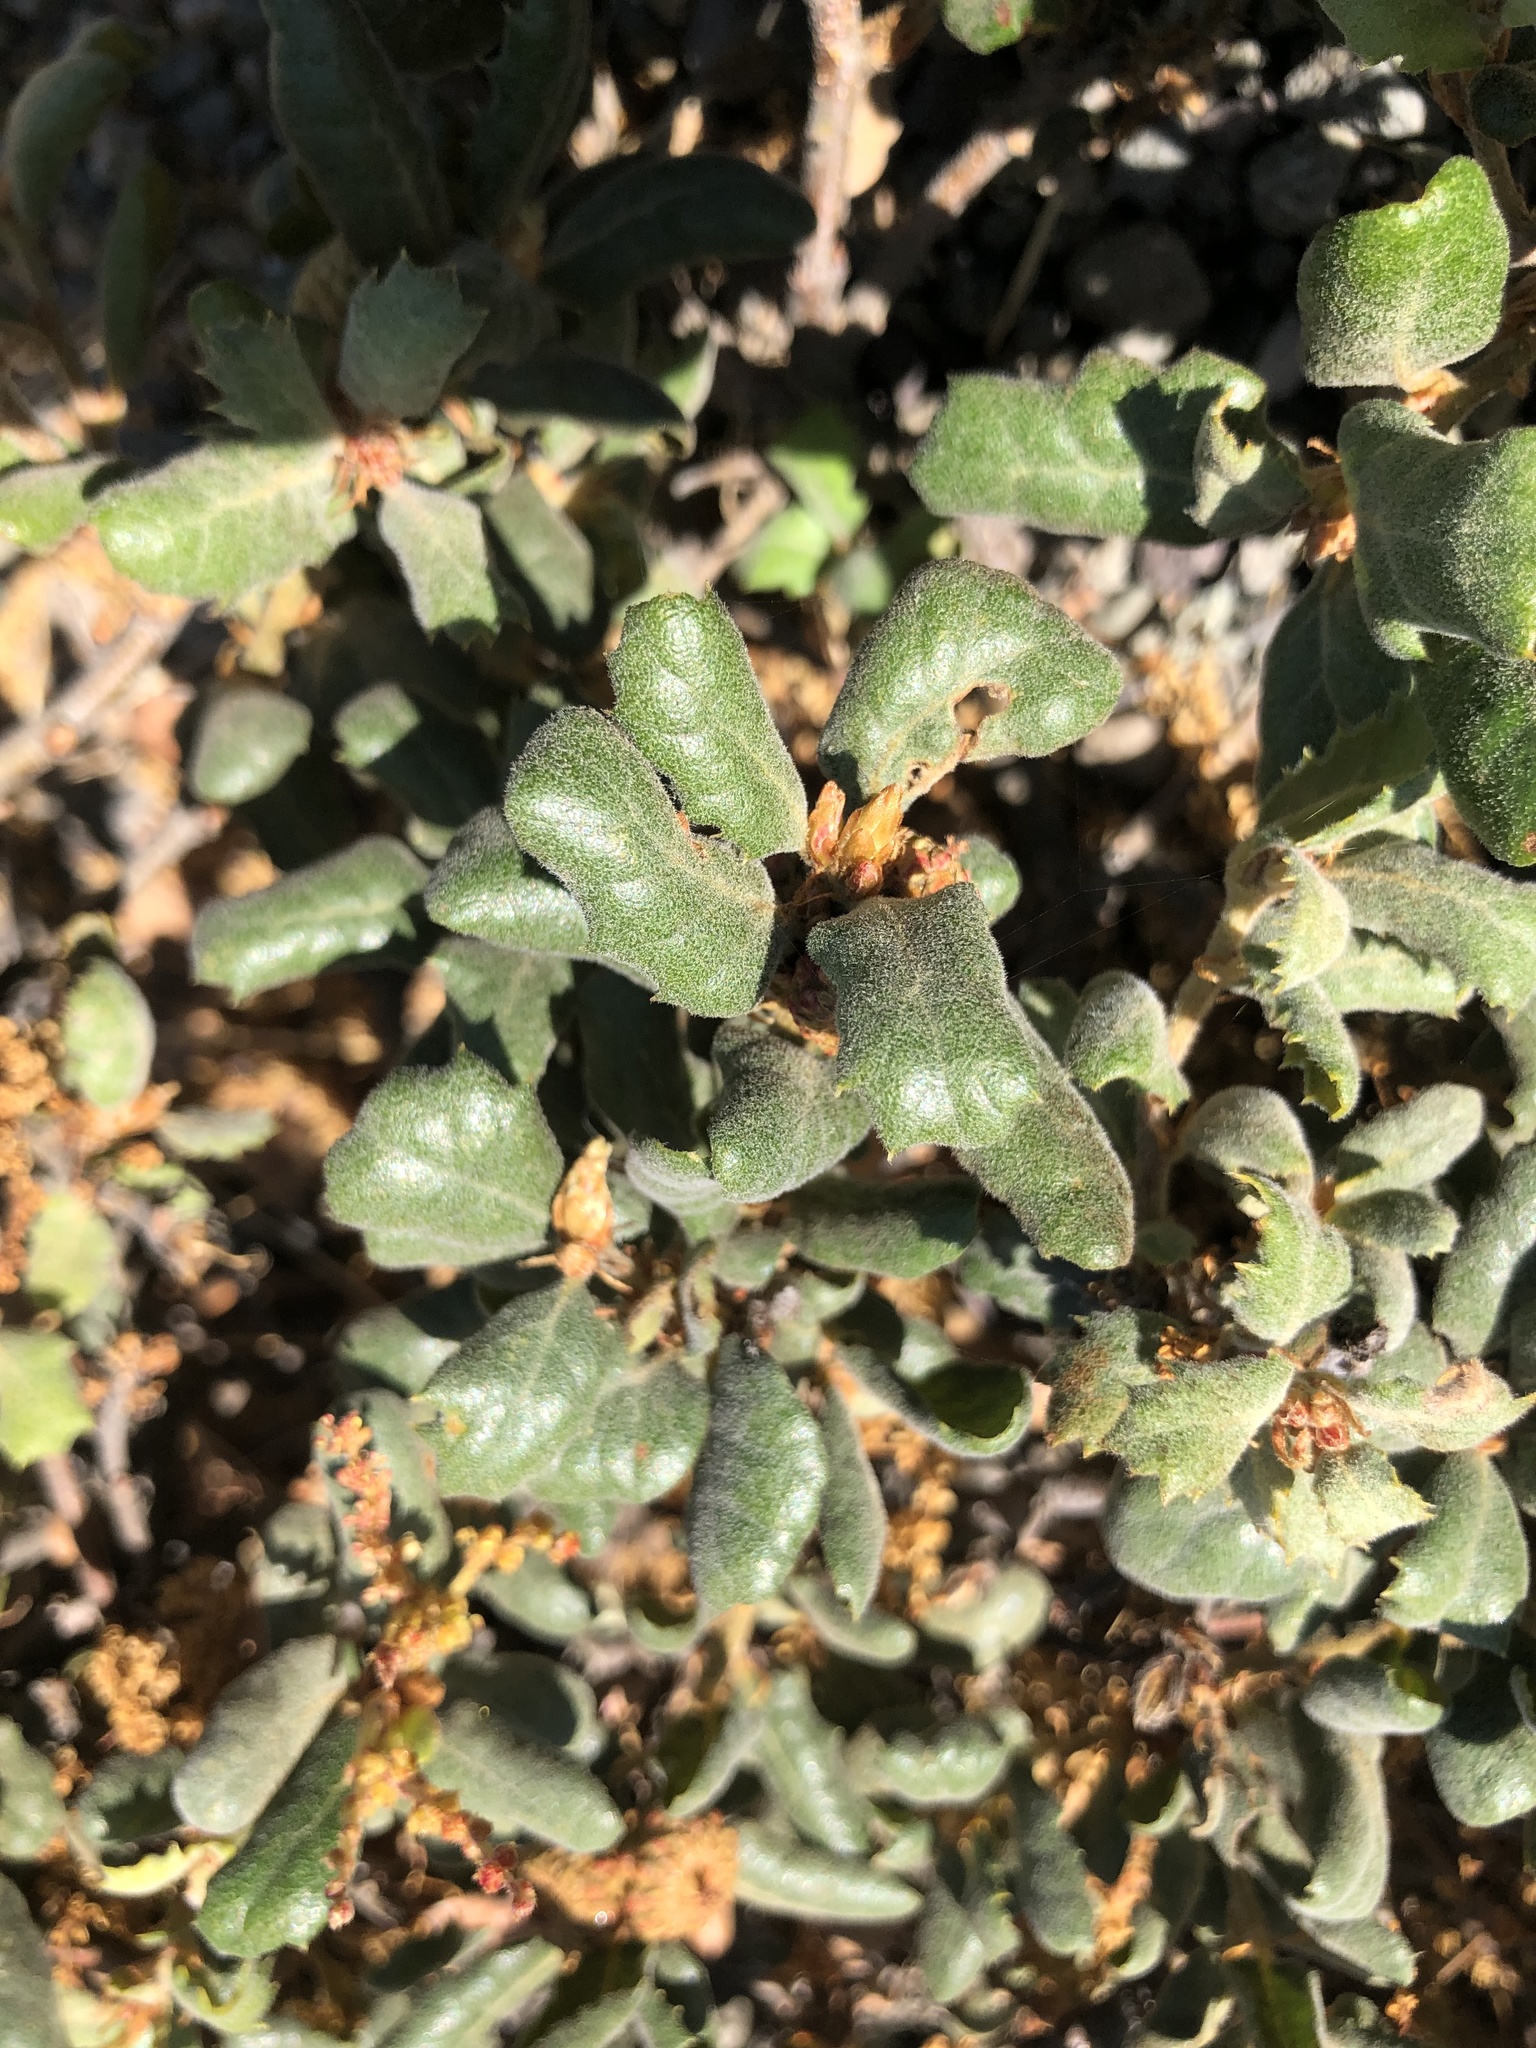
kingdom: Plantae
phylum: Tracheophyta
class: Magnoliopsida
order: Fagales
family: Fagaceae
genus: Quercus
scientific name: Quercus durata
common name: Leather oak
